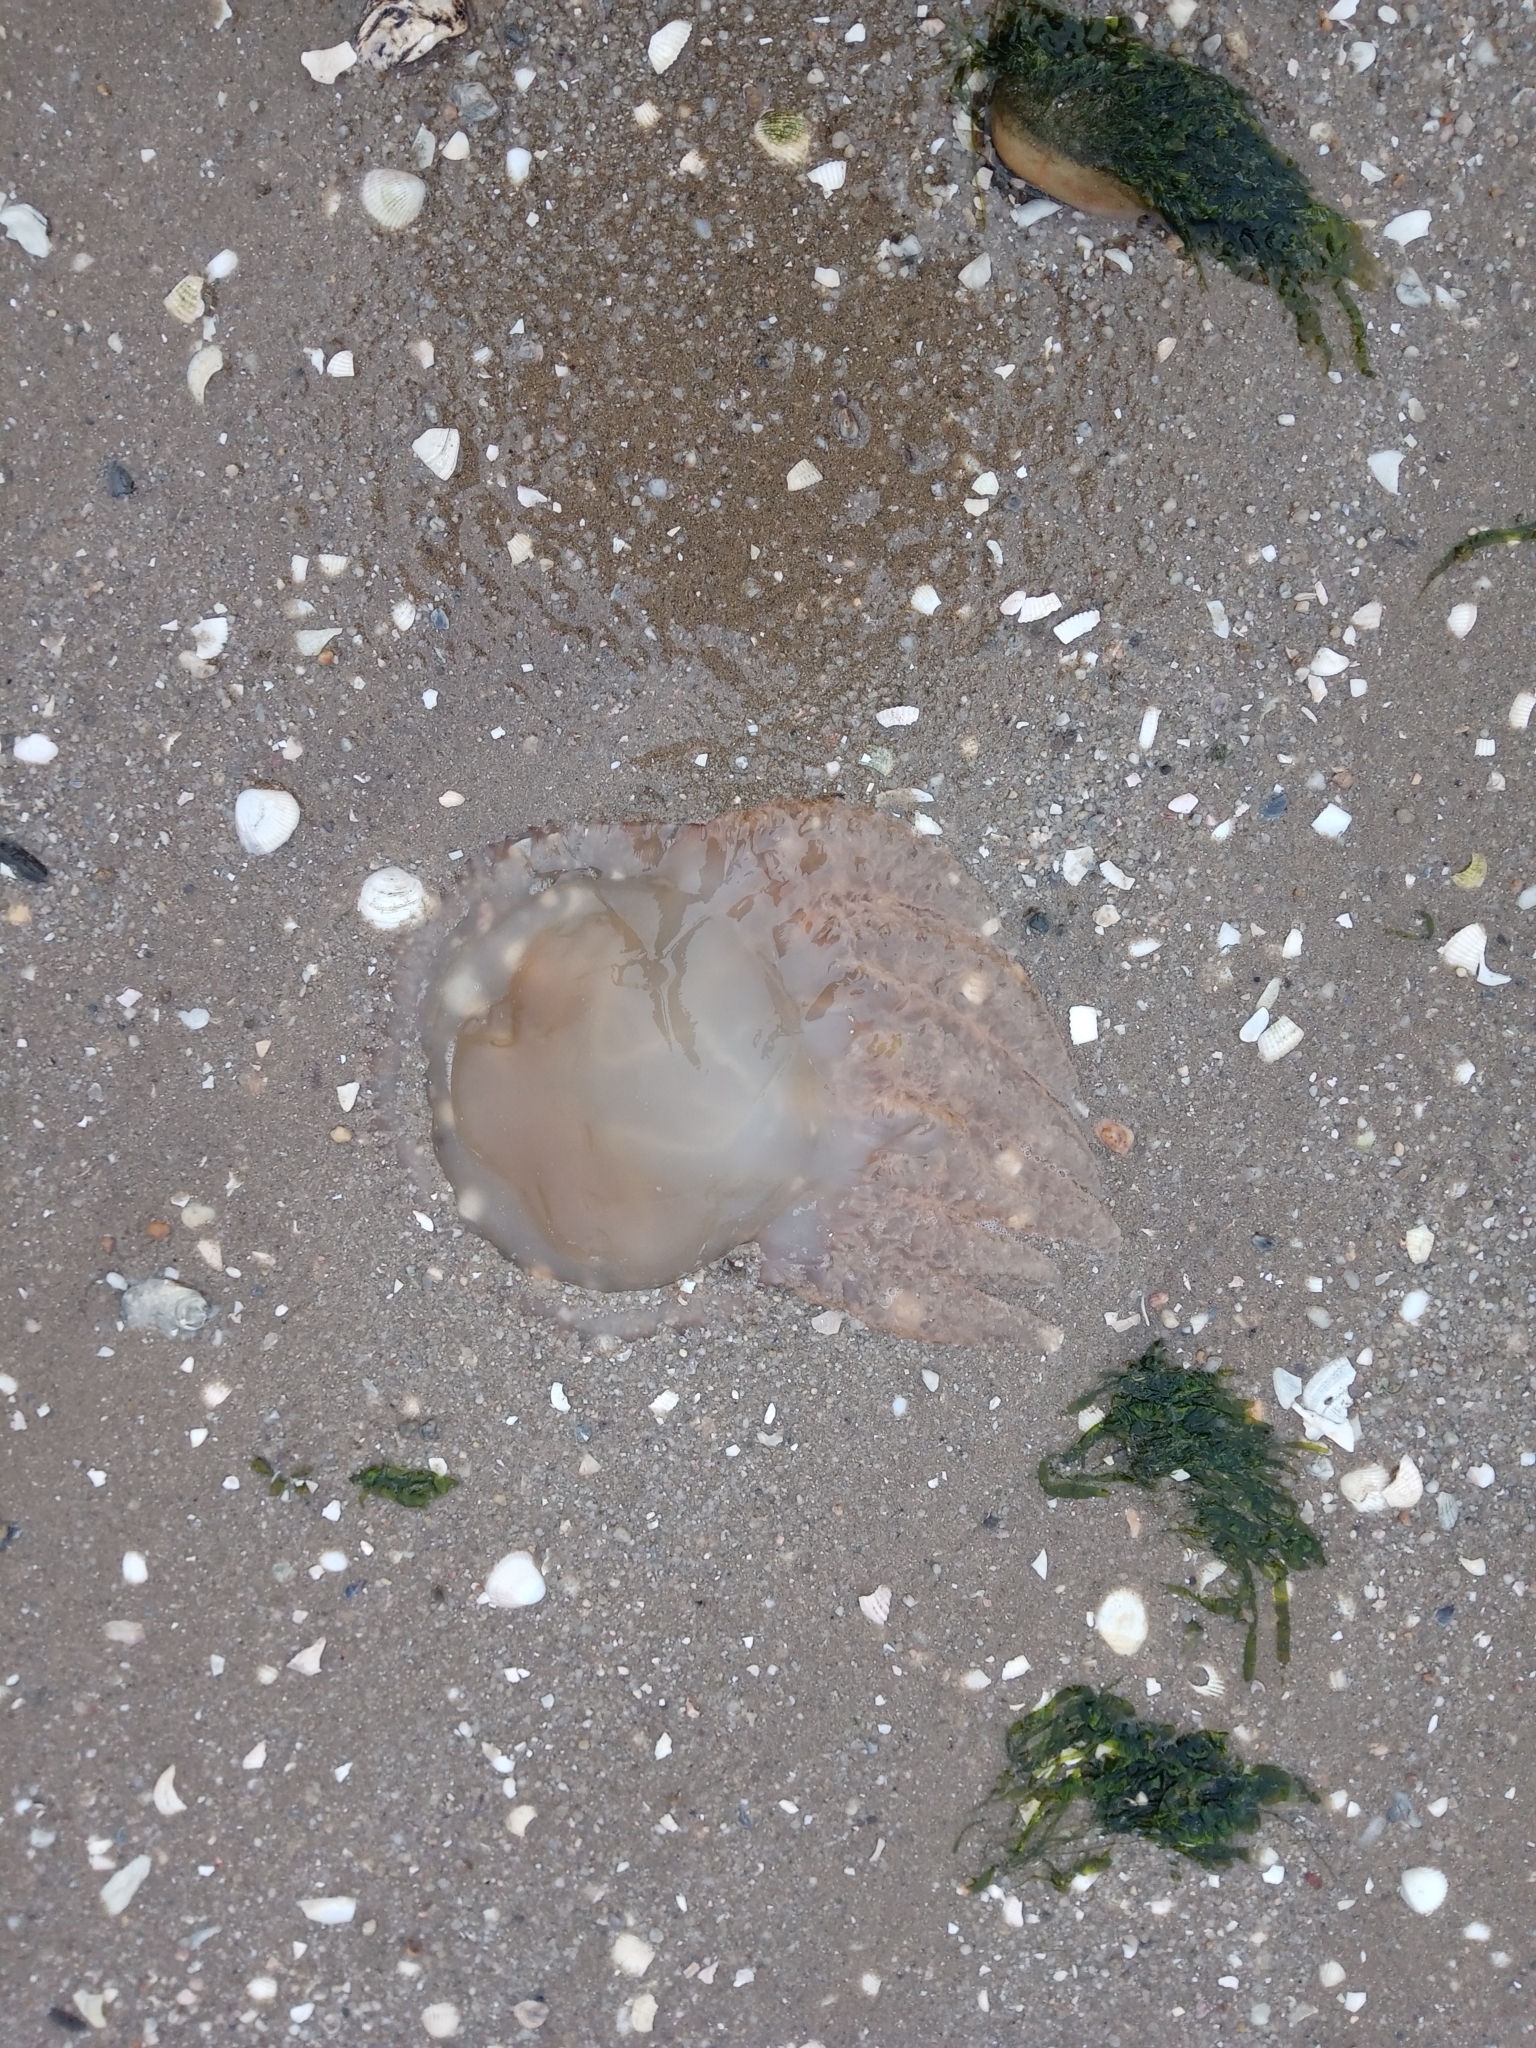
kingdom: Animalia
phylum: Cnidaria
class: Scyphozoa
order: Rhizostomeae
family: Catostylidae
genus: Catostylus
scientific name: Catostylus tagi
